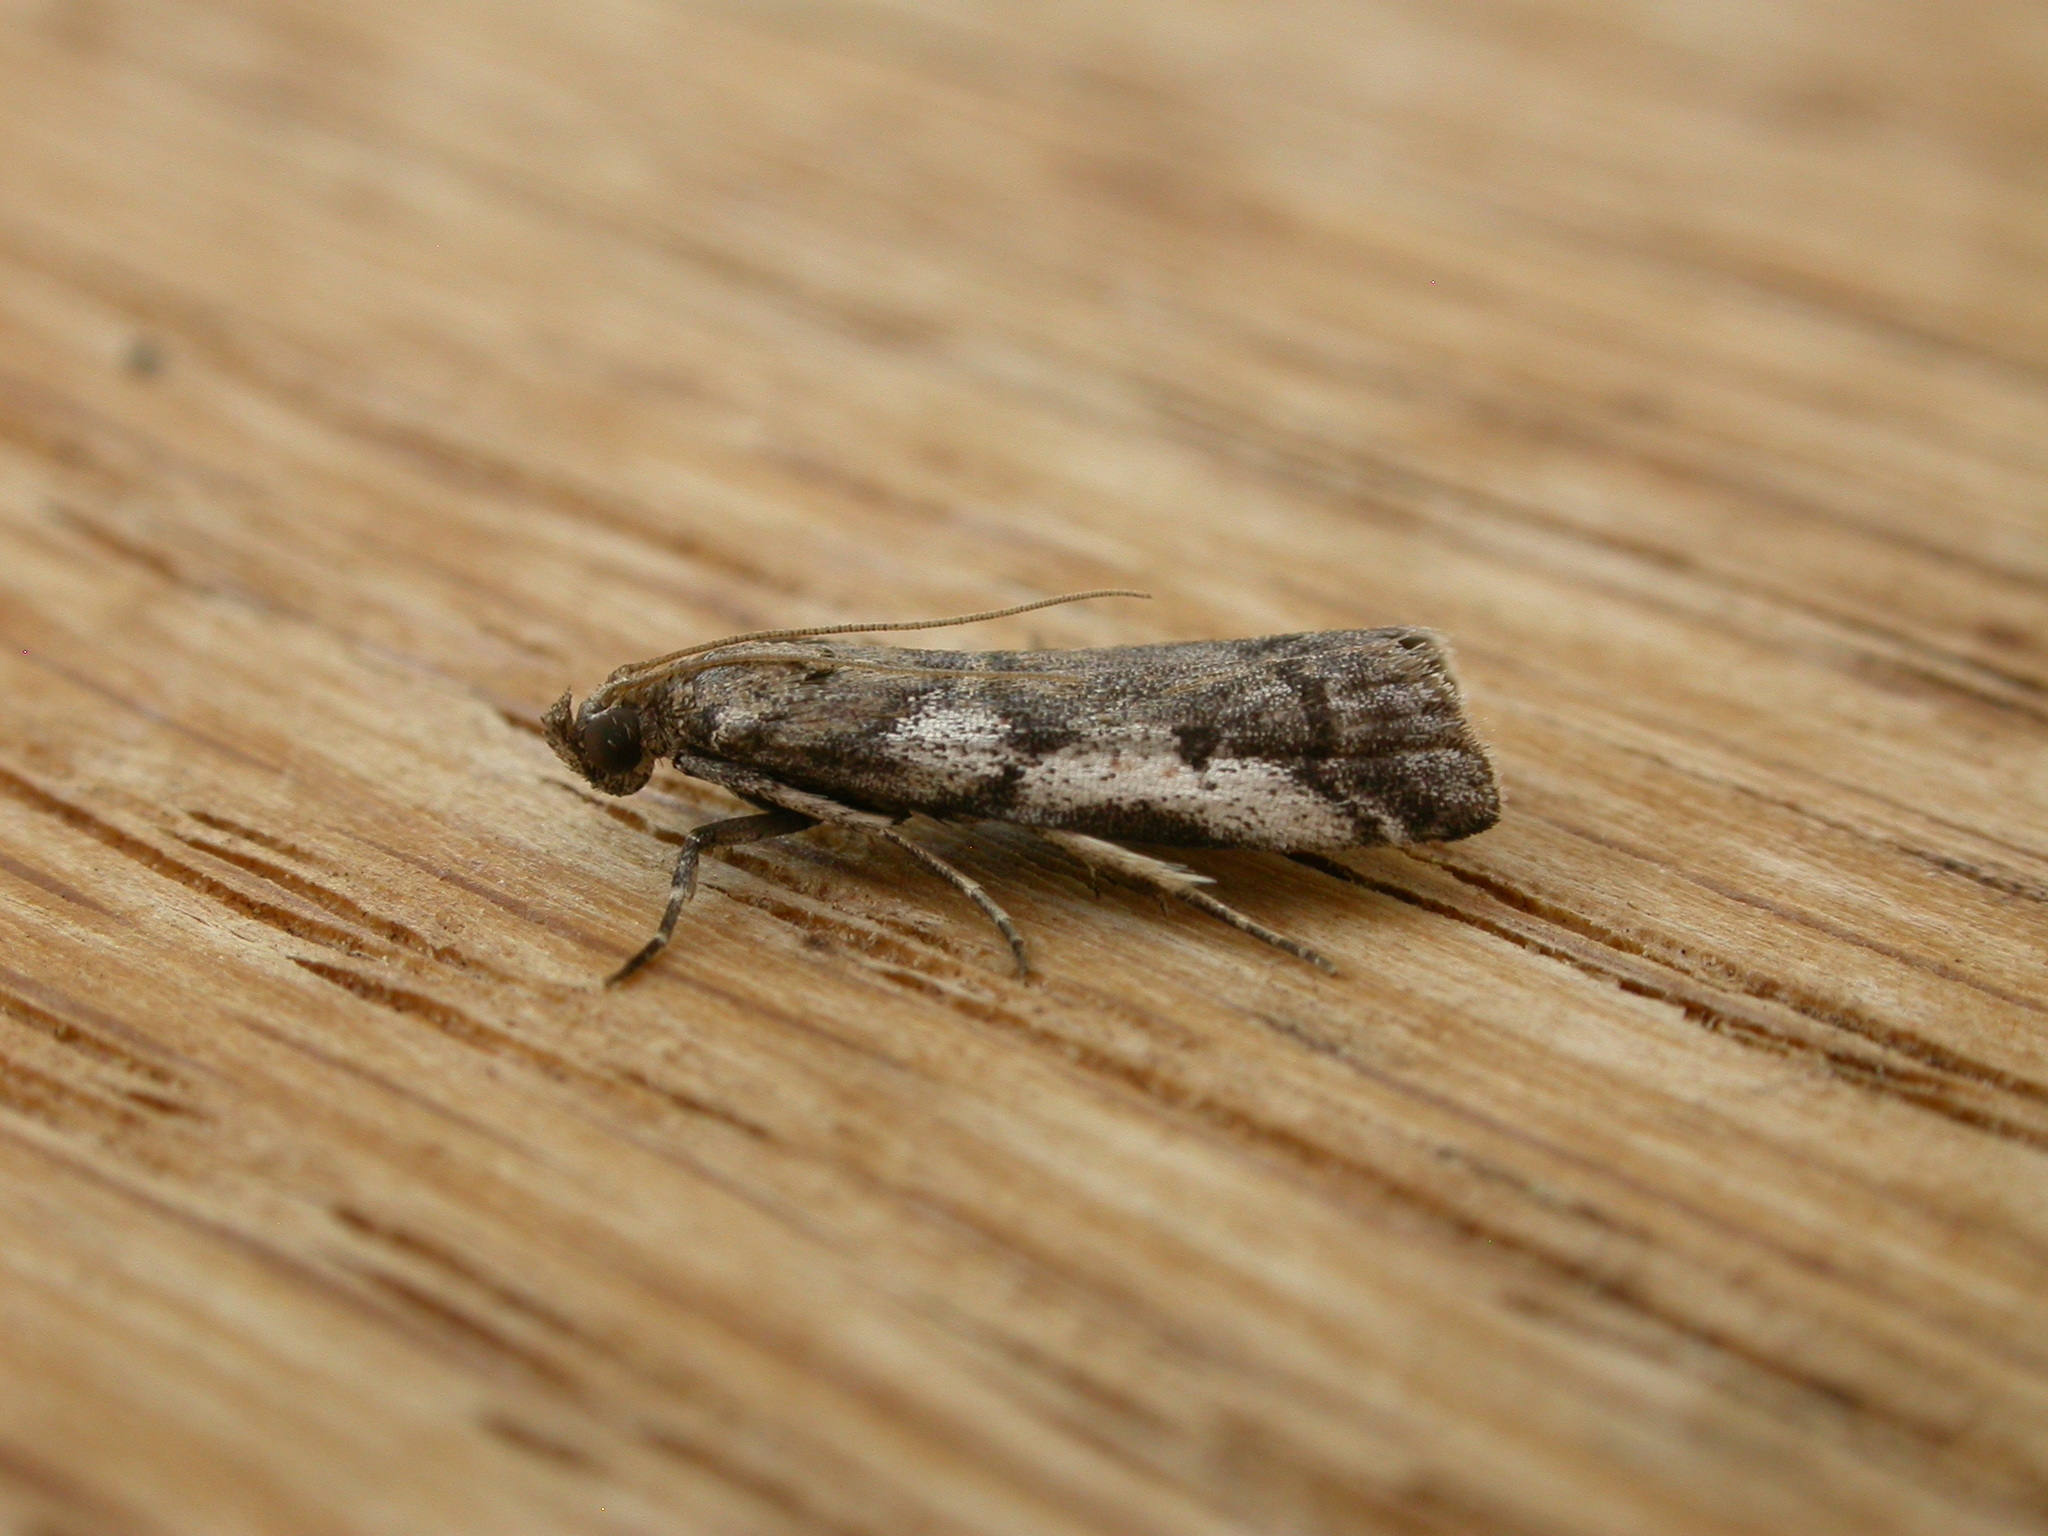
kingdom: Animalia
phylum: Arthropoda
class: Insecta
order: Lepidoptera
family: Pyralidae
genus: Assara
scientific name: Assara holophragma
